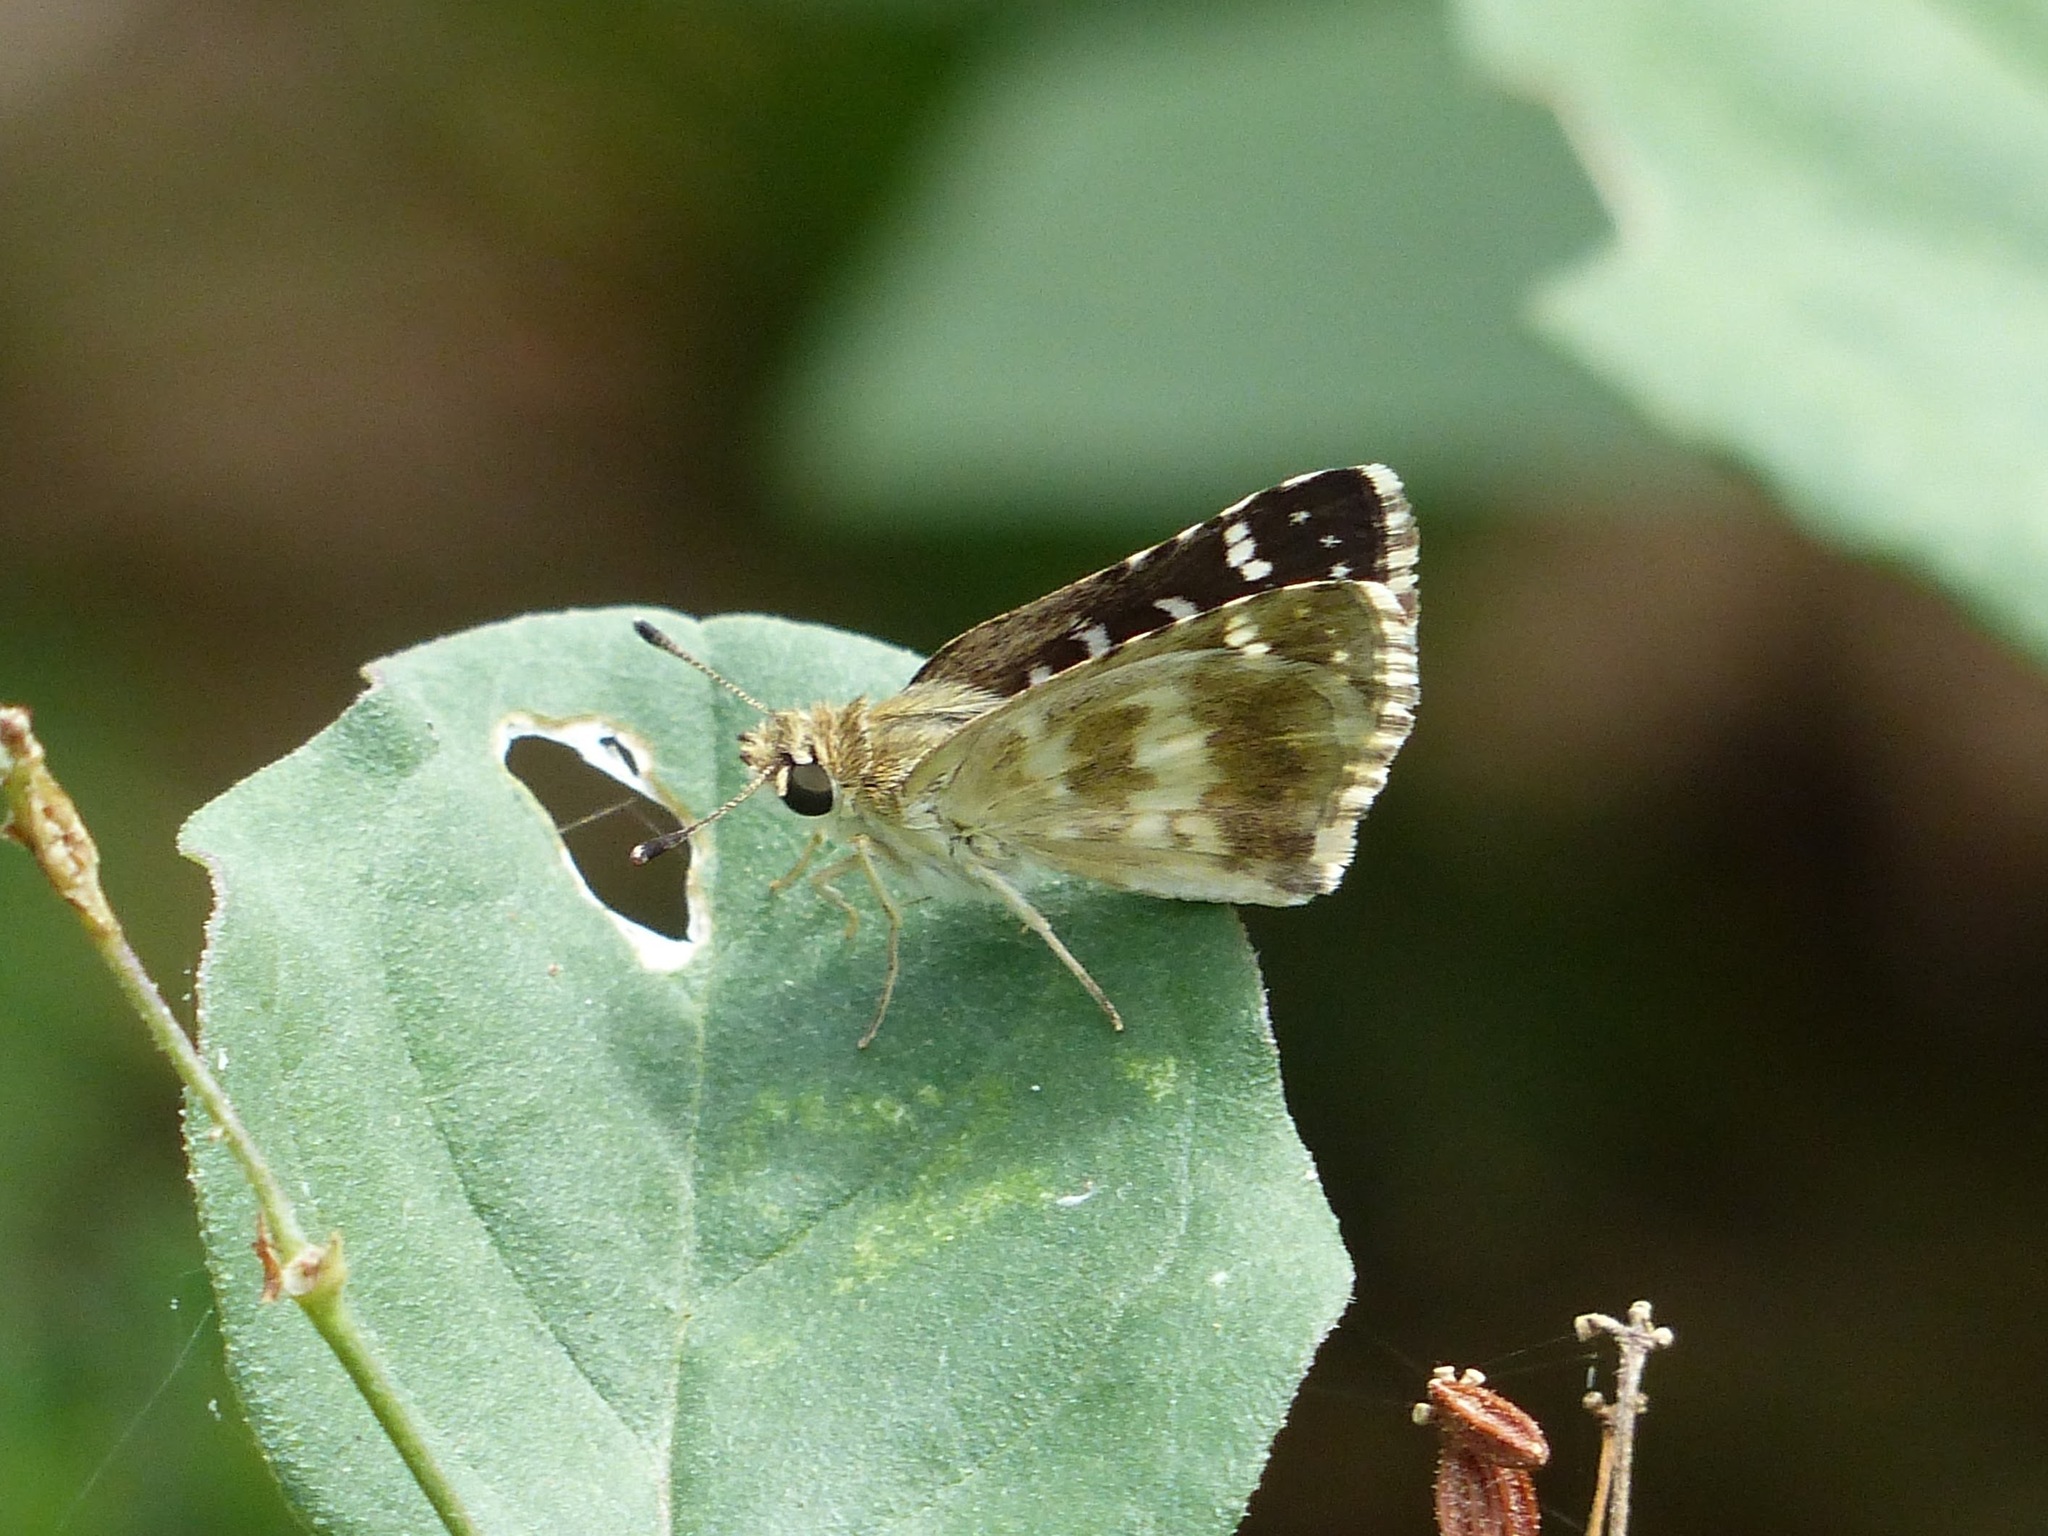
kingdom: Animalia
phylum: Arthropoda
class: Insecta
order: Lepidoptera
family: Hesperiidae
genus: Spialia
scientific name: Spialia galba
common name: Indian skipper
